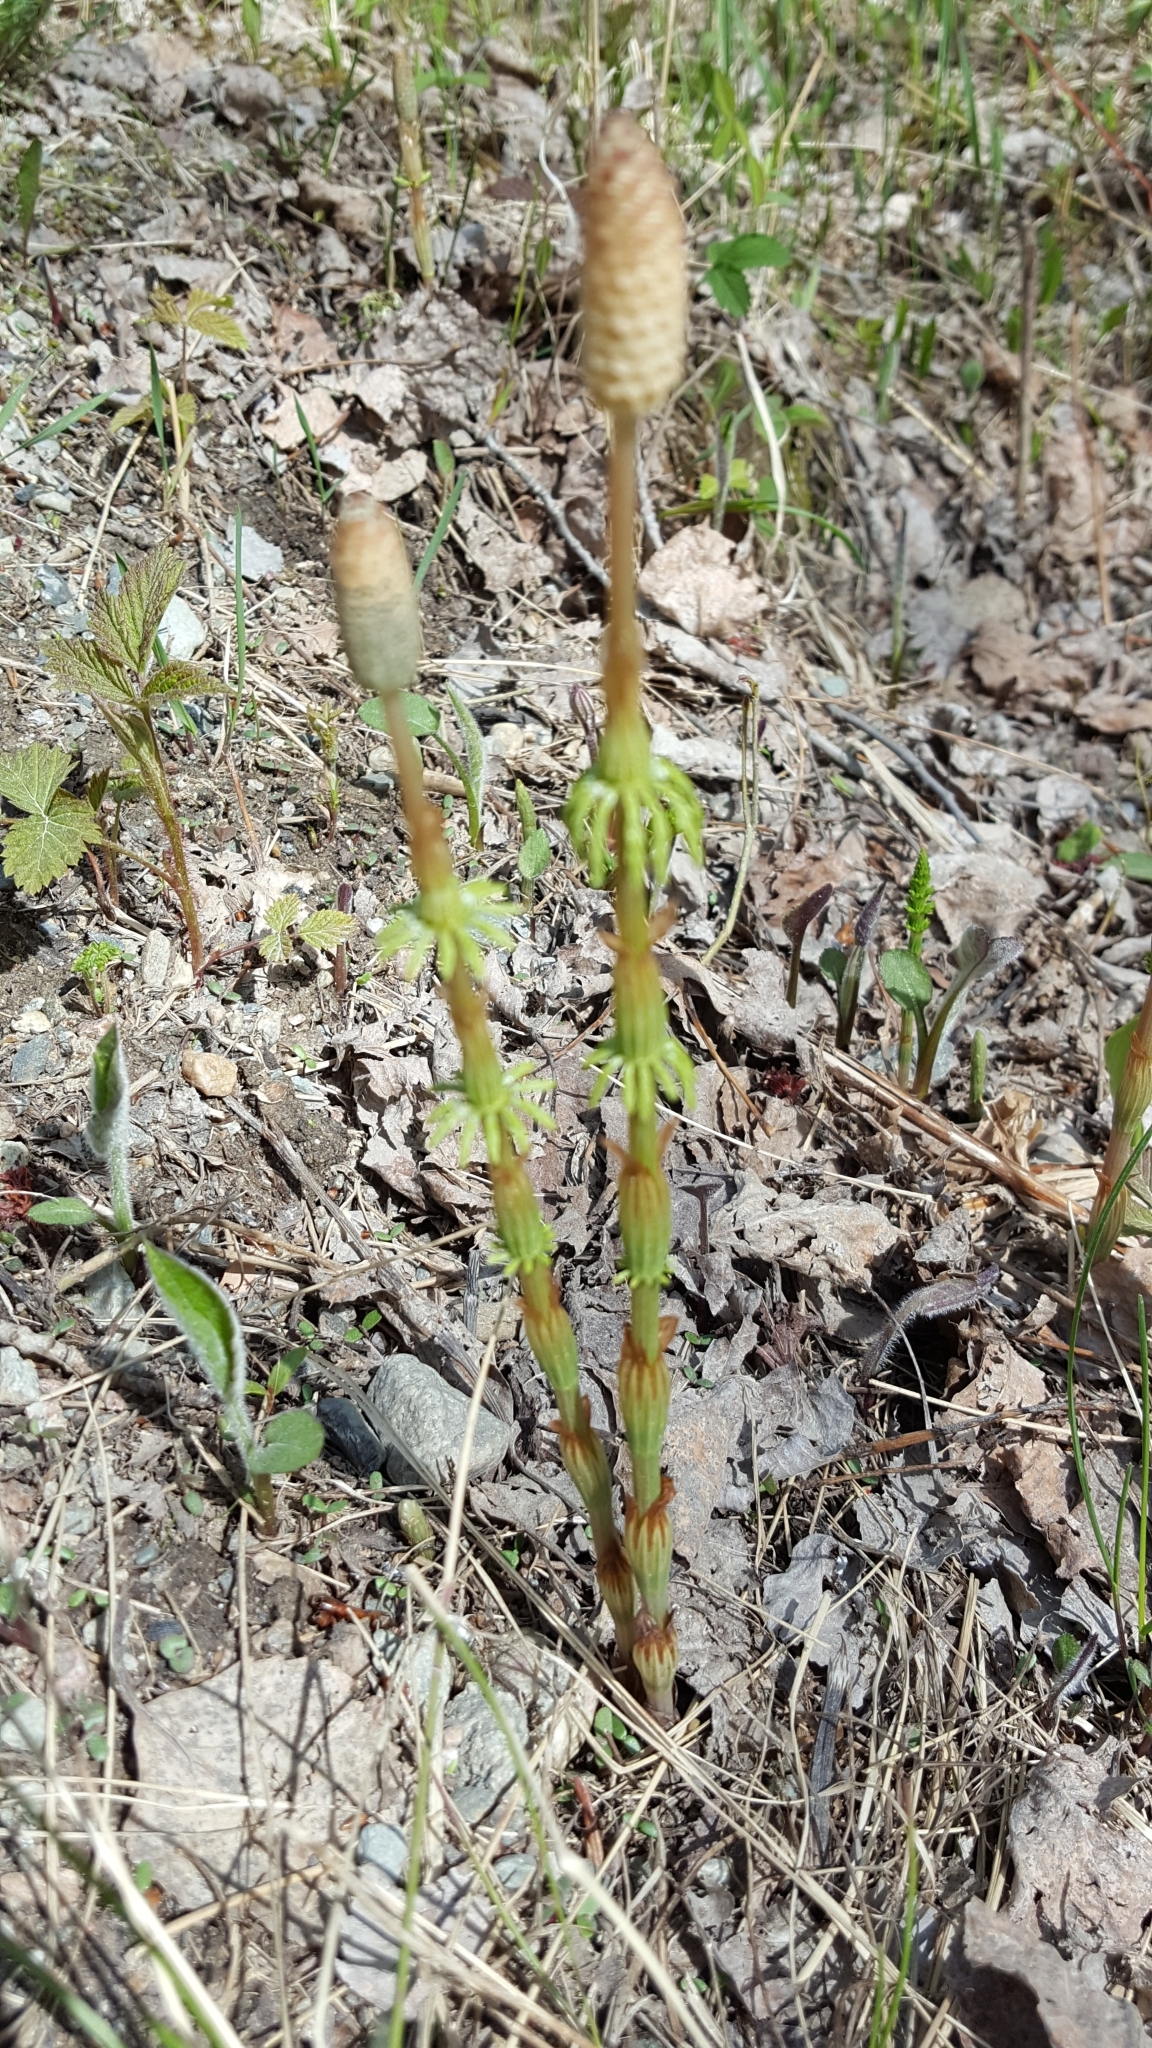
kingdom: Plantae
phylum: Tracheophyta
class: Polypodiopsida
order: Equisetales
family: Equisetaceae
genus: Equisetum
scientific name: Equisetum sylvaticum
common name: Wood horsetail
